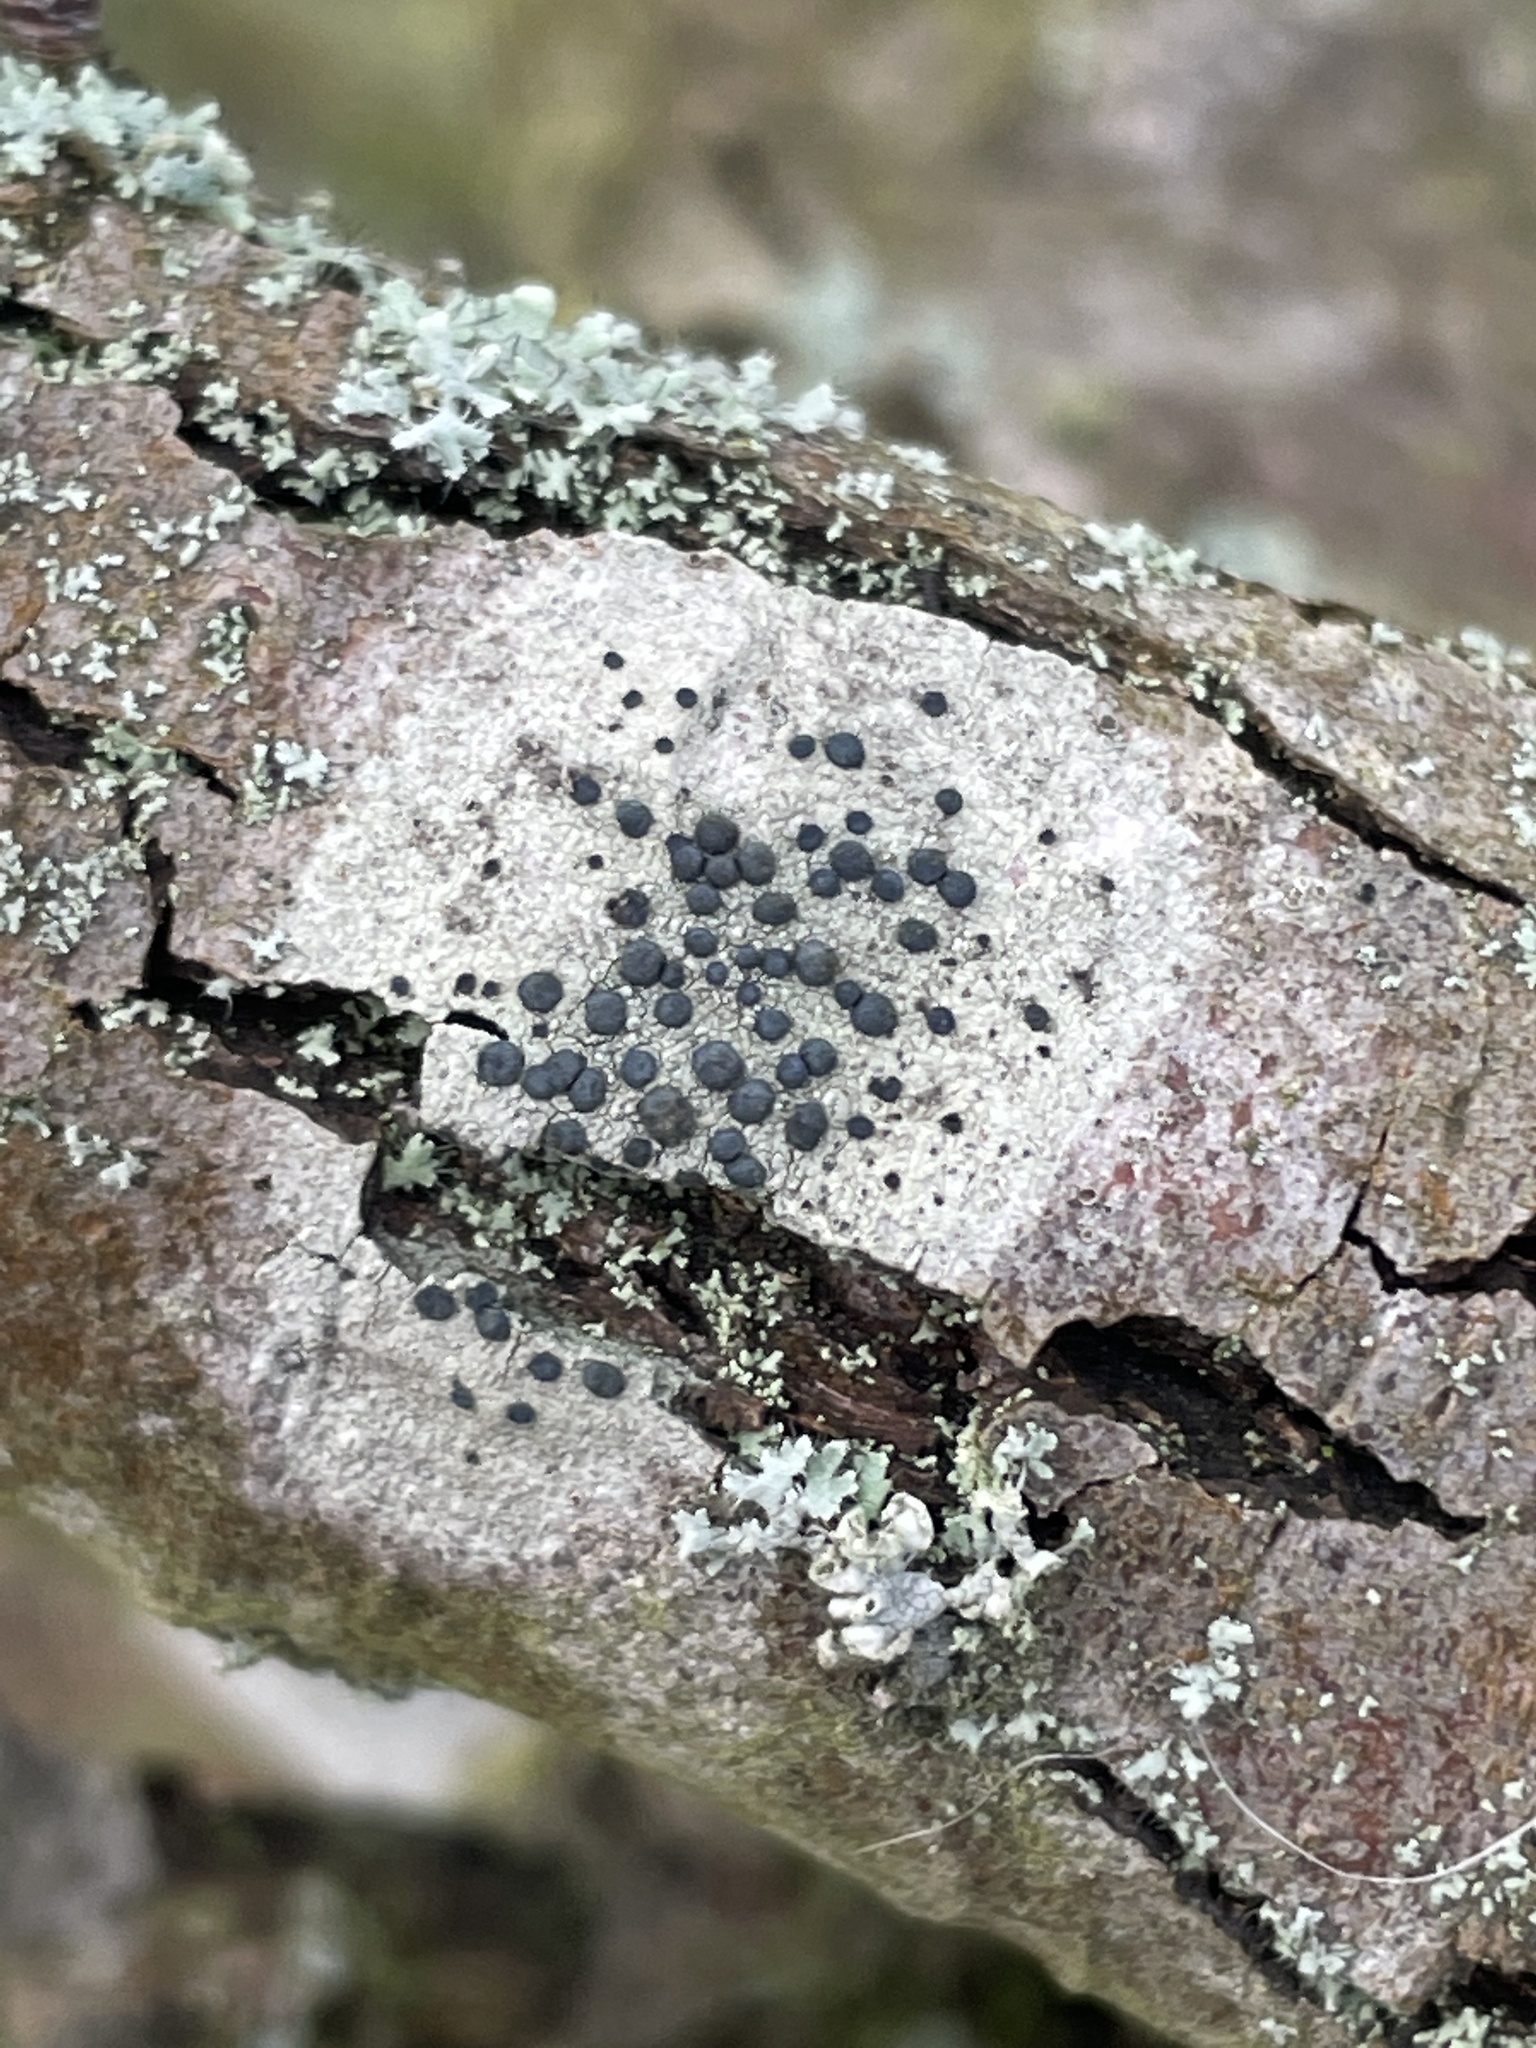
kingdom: Fungi
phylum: Ascomycota
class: Lecanoromycetes
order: Lecanorales
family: Lecanoraceae
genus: Lecidella
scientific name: Lecidella elaeochroma
